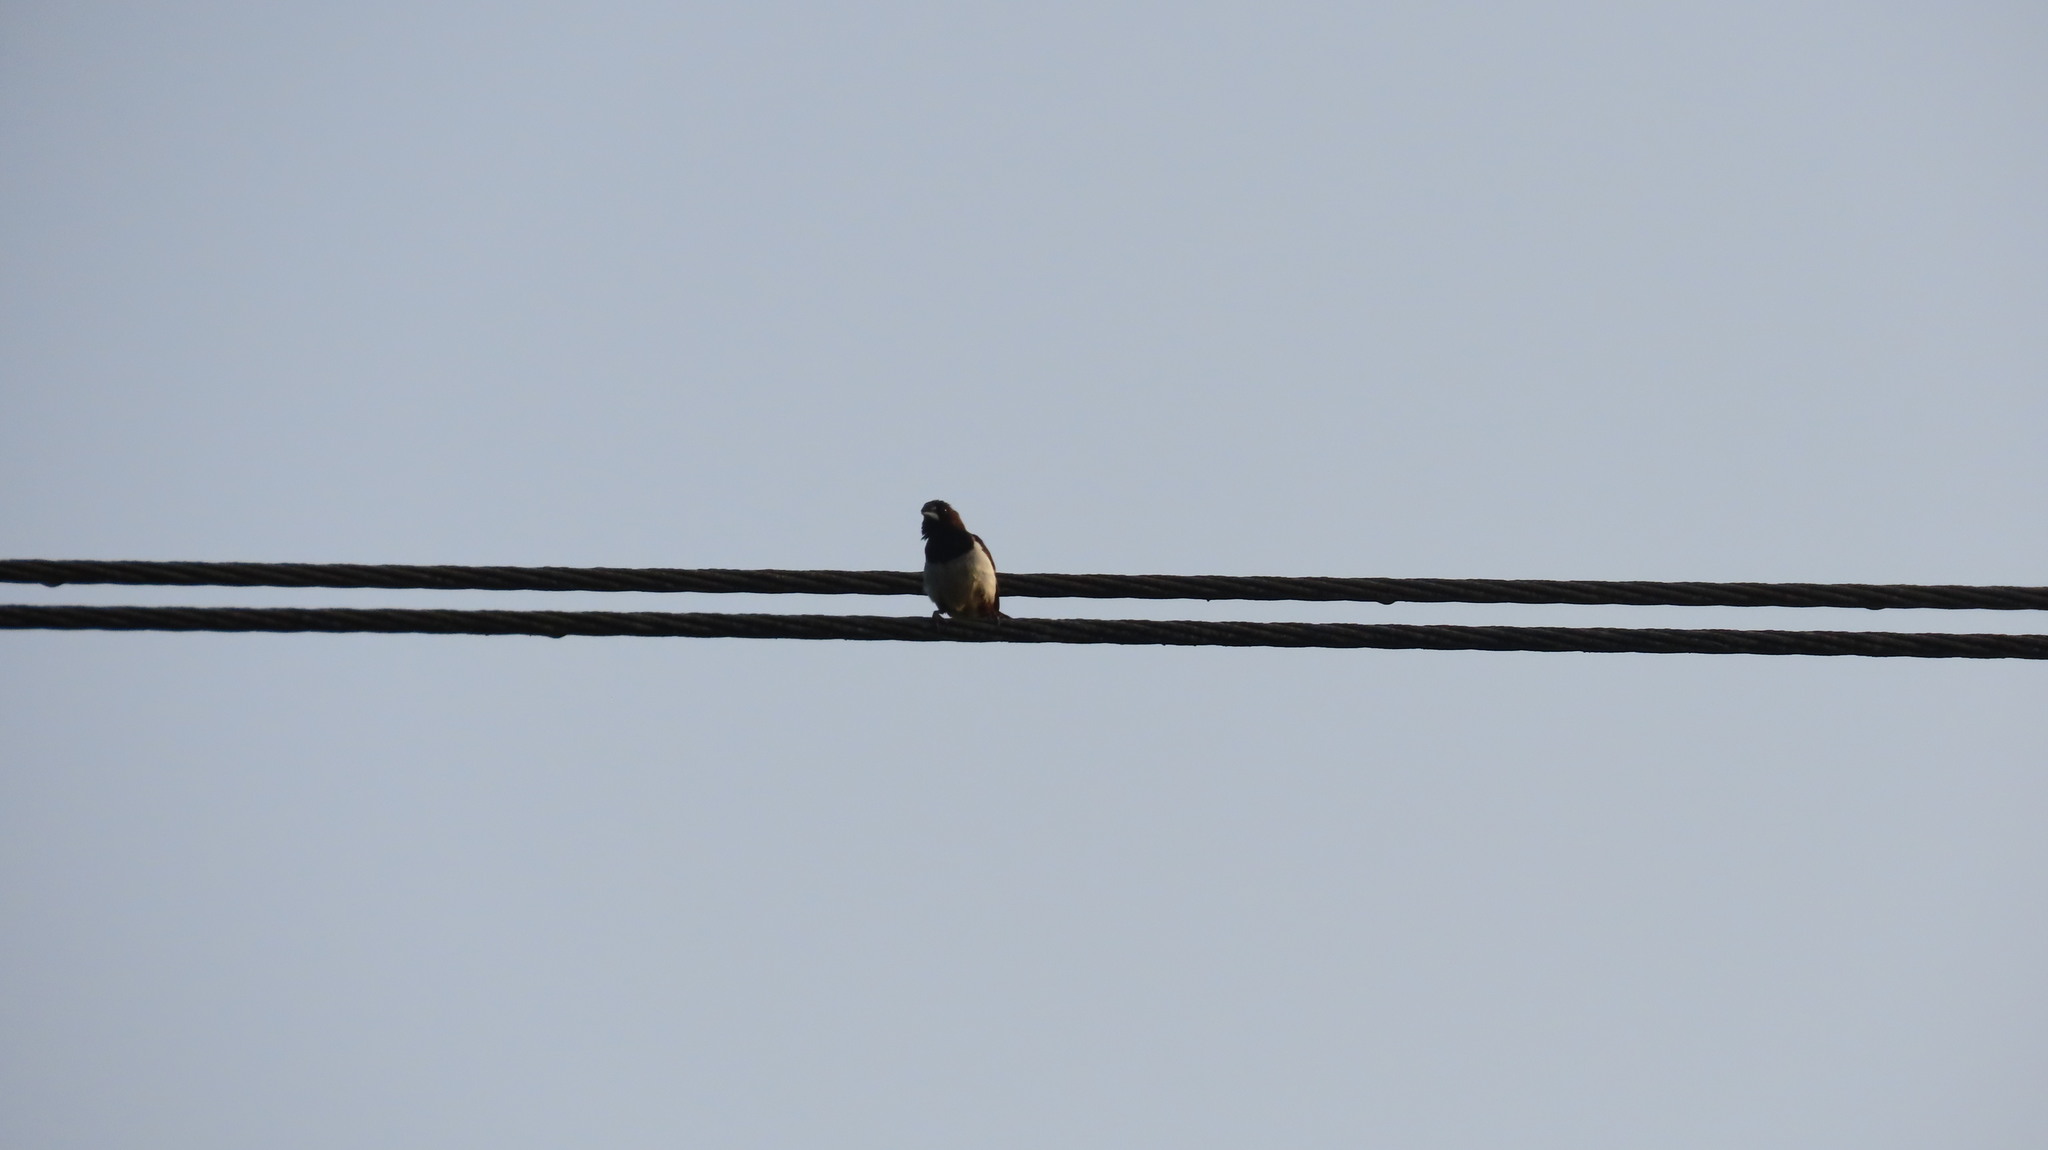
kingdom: Animalia
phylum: Chordata
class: Aves
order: Passeriformes
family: Estrildidae
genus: Lonchura
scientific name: Lonchura striata
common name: White-rumped munia
